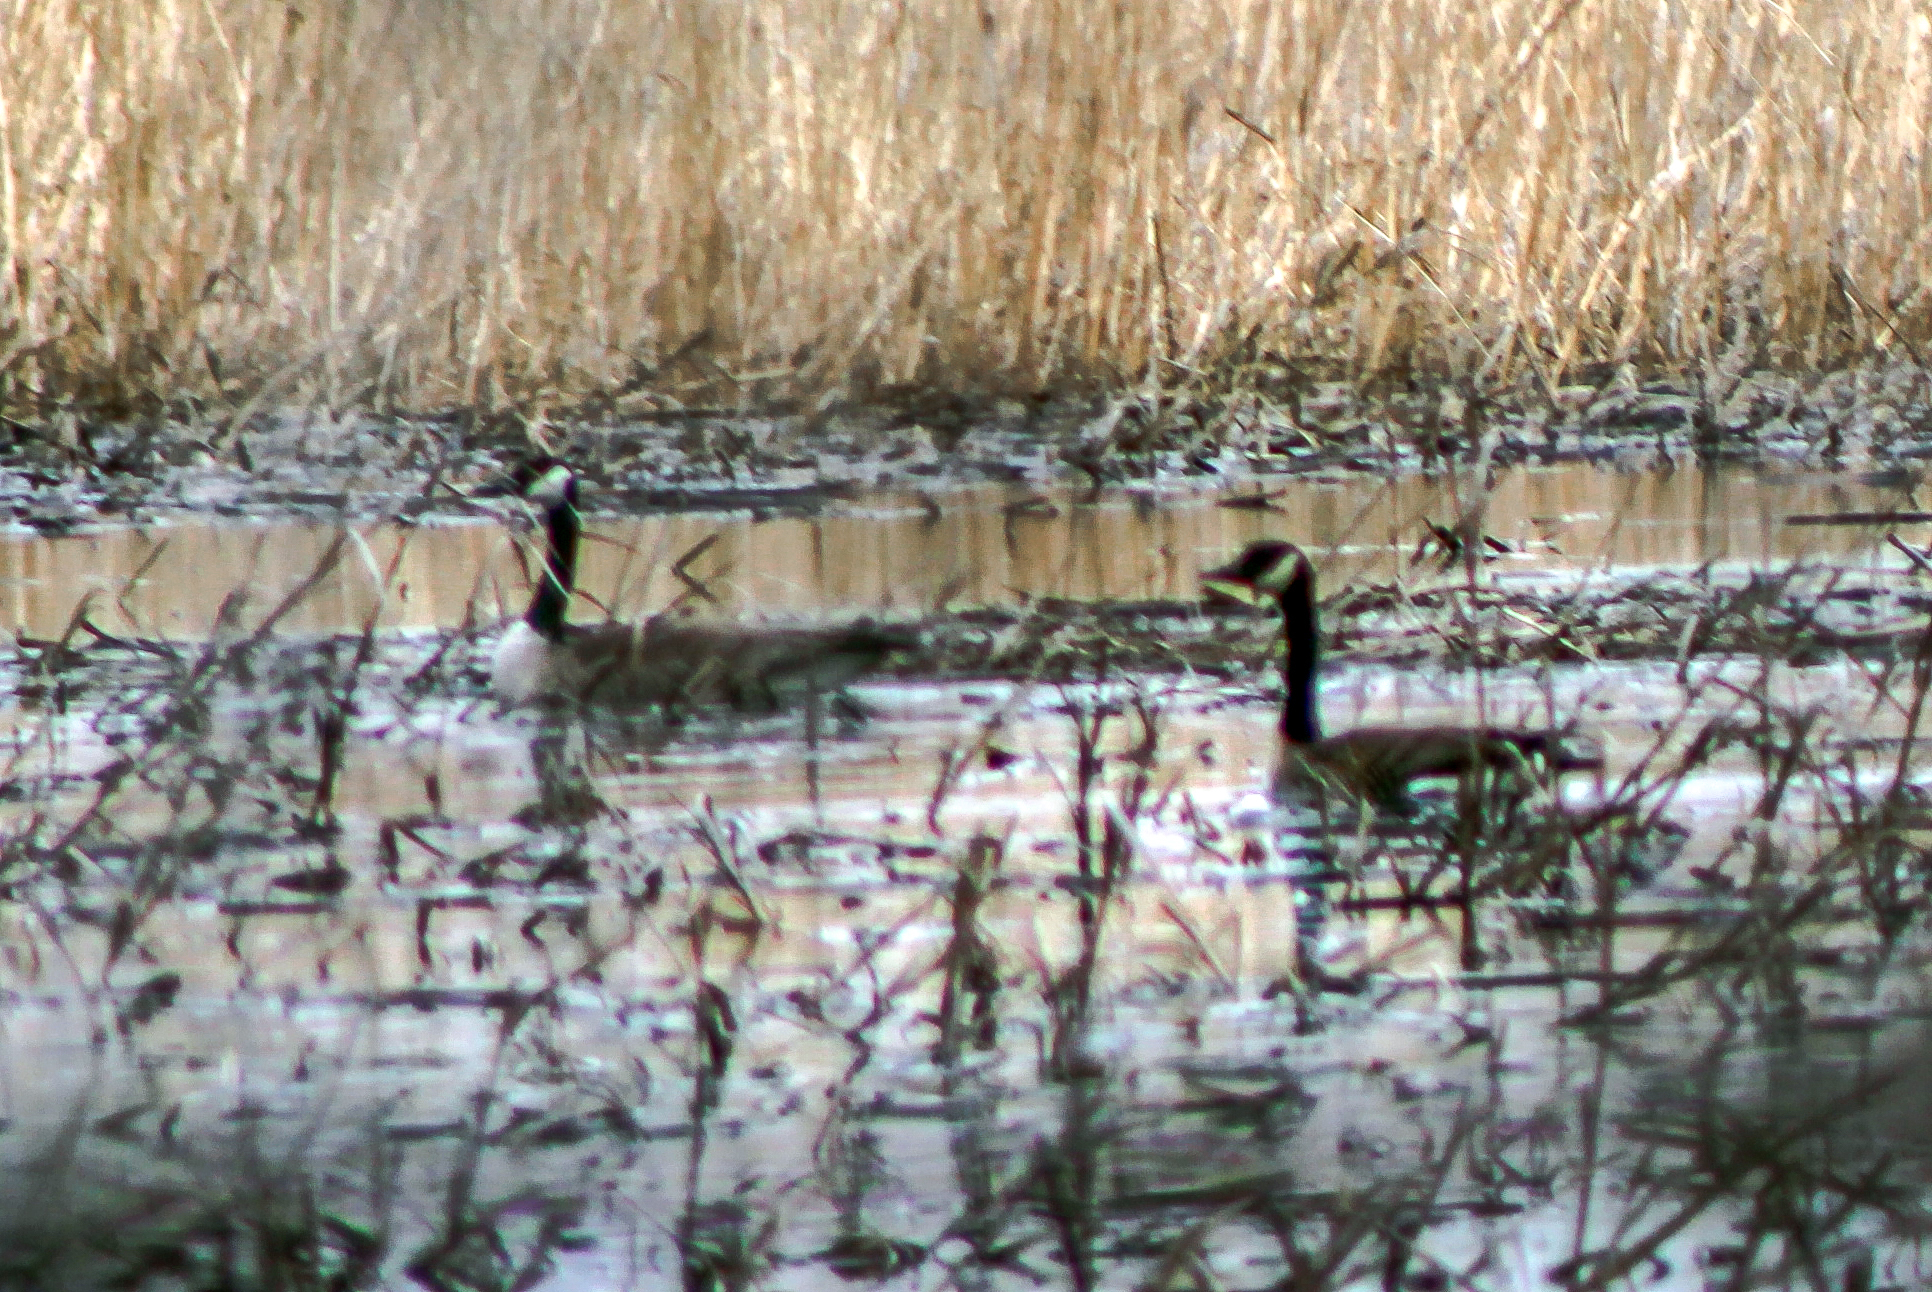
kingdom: Animalia
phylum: Chordata
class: Aves
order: Anseriformes
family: Anatidae
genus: Branta
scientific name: Branta canadensis
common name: Canada goose
